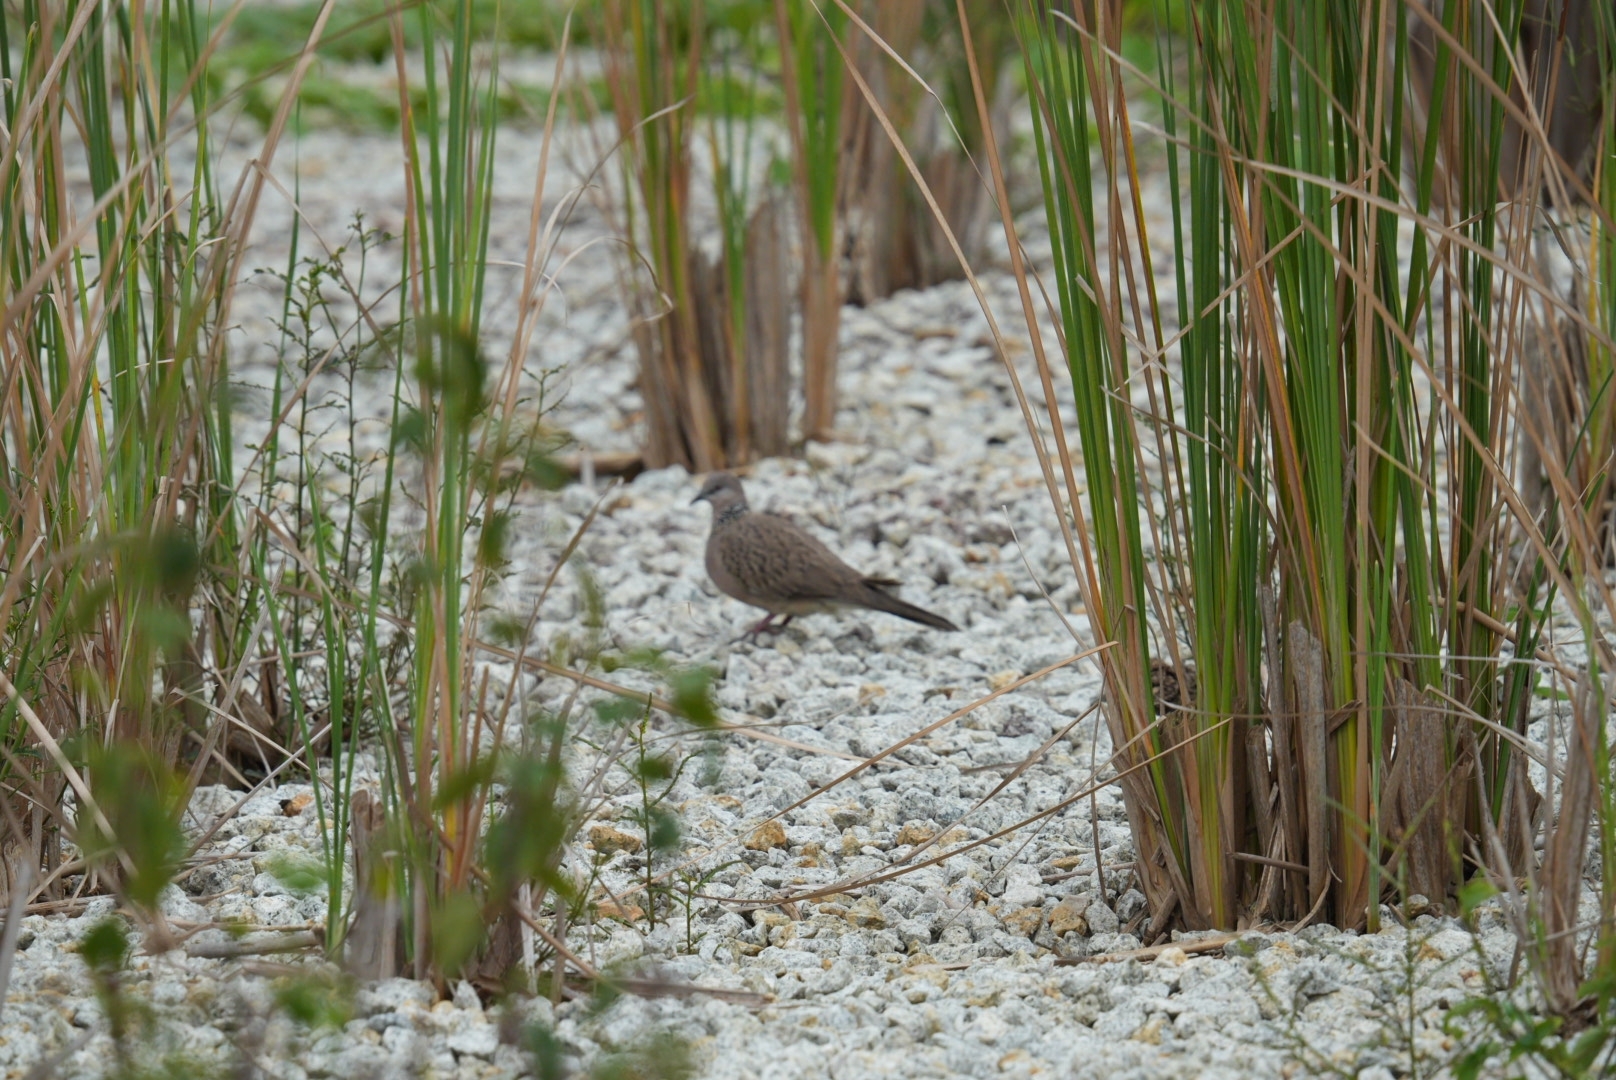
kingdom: Animalia
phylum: Chordata
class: Aves
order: Columbiformes
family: Columbidae
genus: Spilopelia
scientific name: Spilopelia chinensis
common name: Spotted dove
